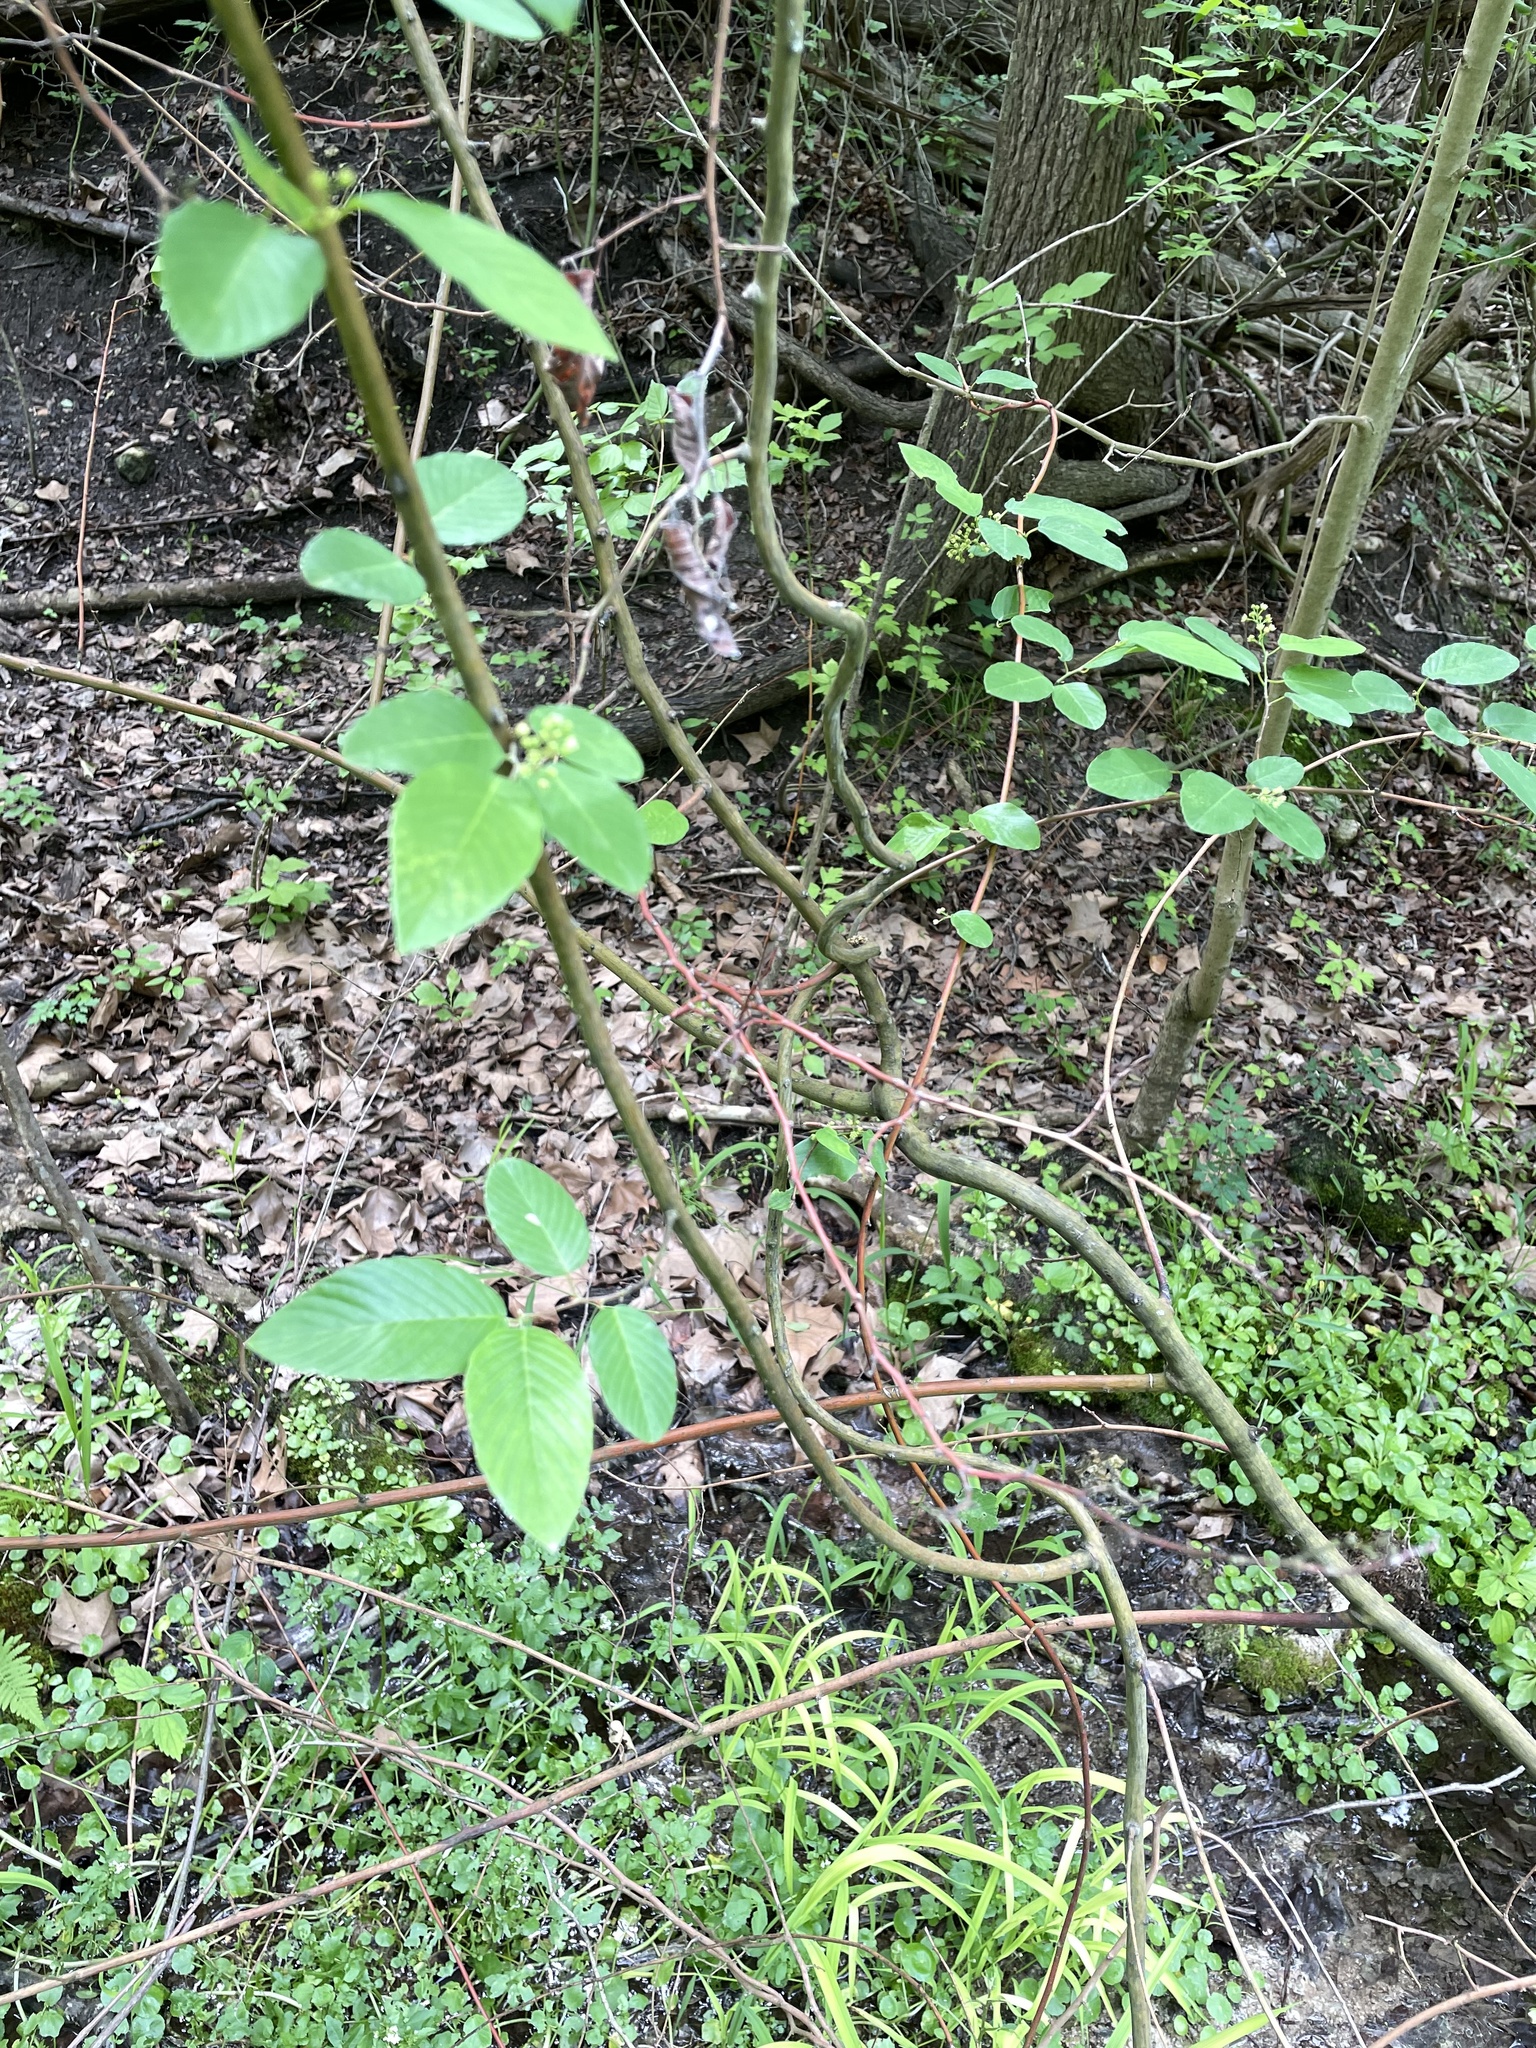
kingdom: Plantae
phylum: Tracheophyta
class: Magnoliopsida
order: Rosales
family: Rhamnaceae
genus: Berchemia
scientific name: Berchemia scandens
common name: Supplejack
